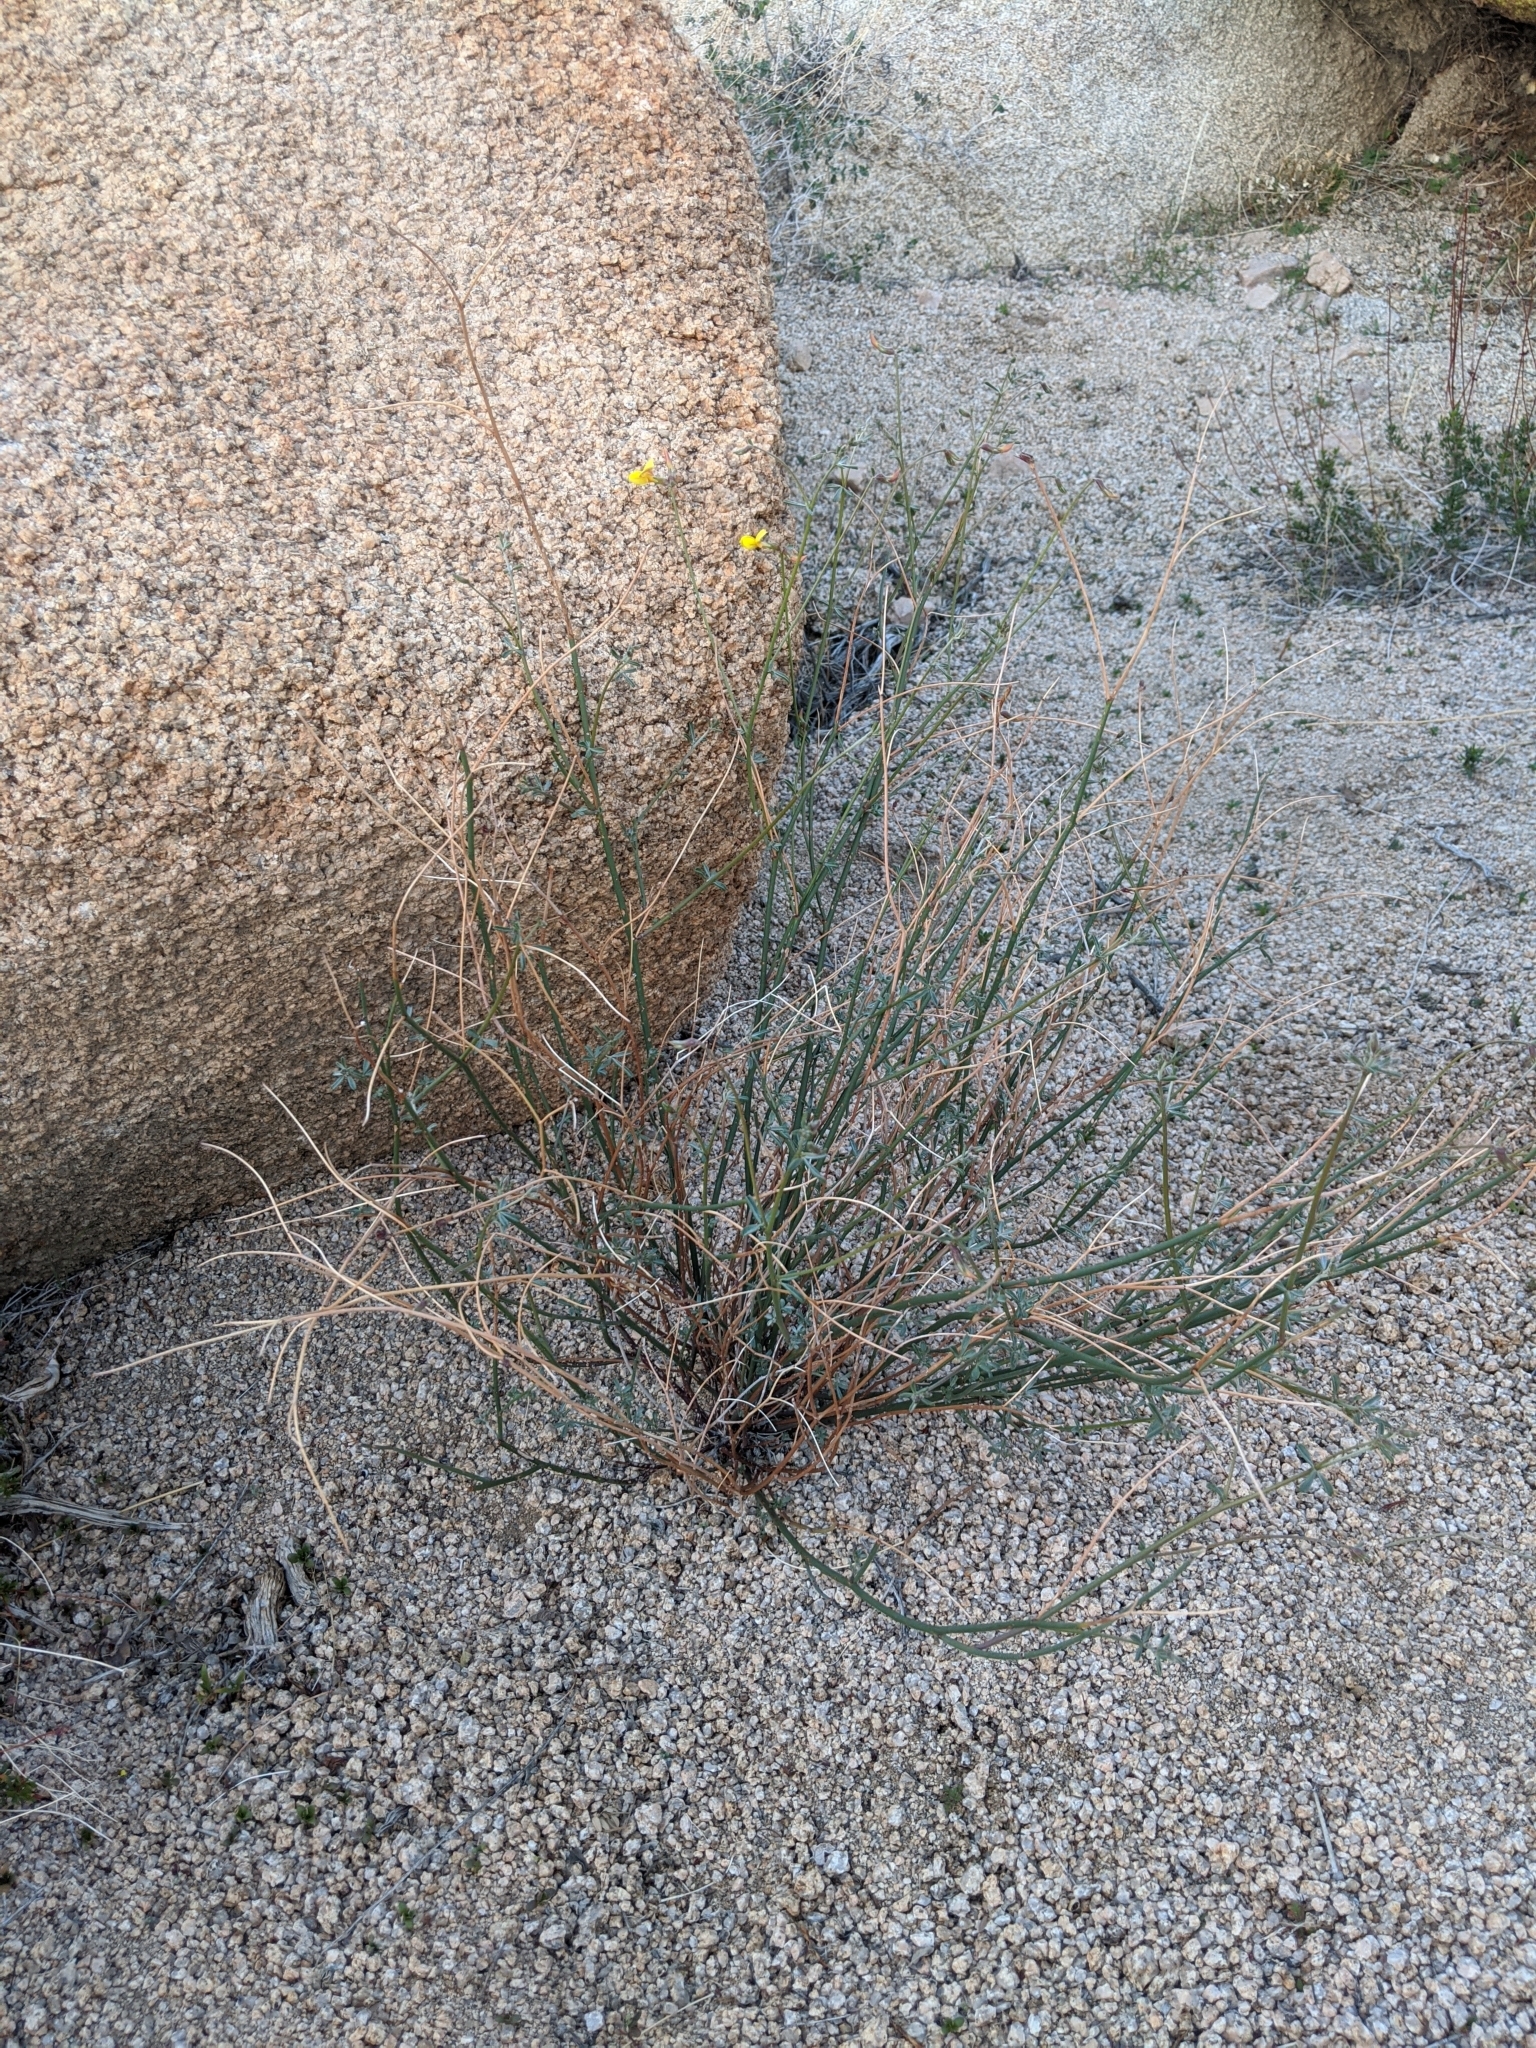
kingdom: Plantae
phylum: Tracheophyta
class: Magnoliopsida
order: Fabales
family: Fabaceae
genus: Acmispon
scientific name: Acmispon rigidus
